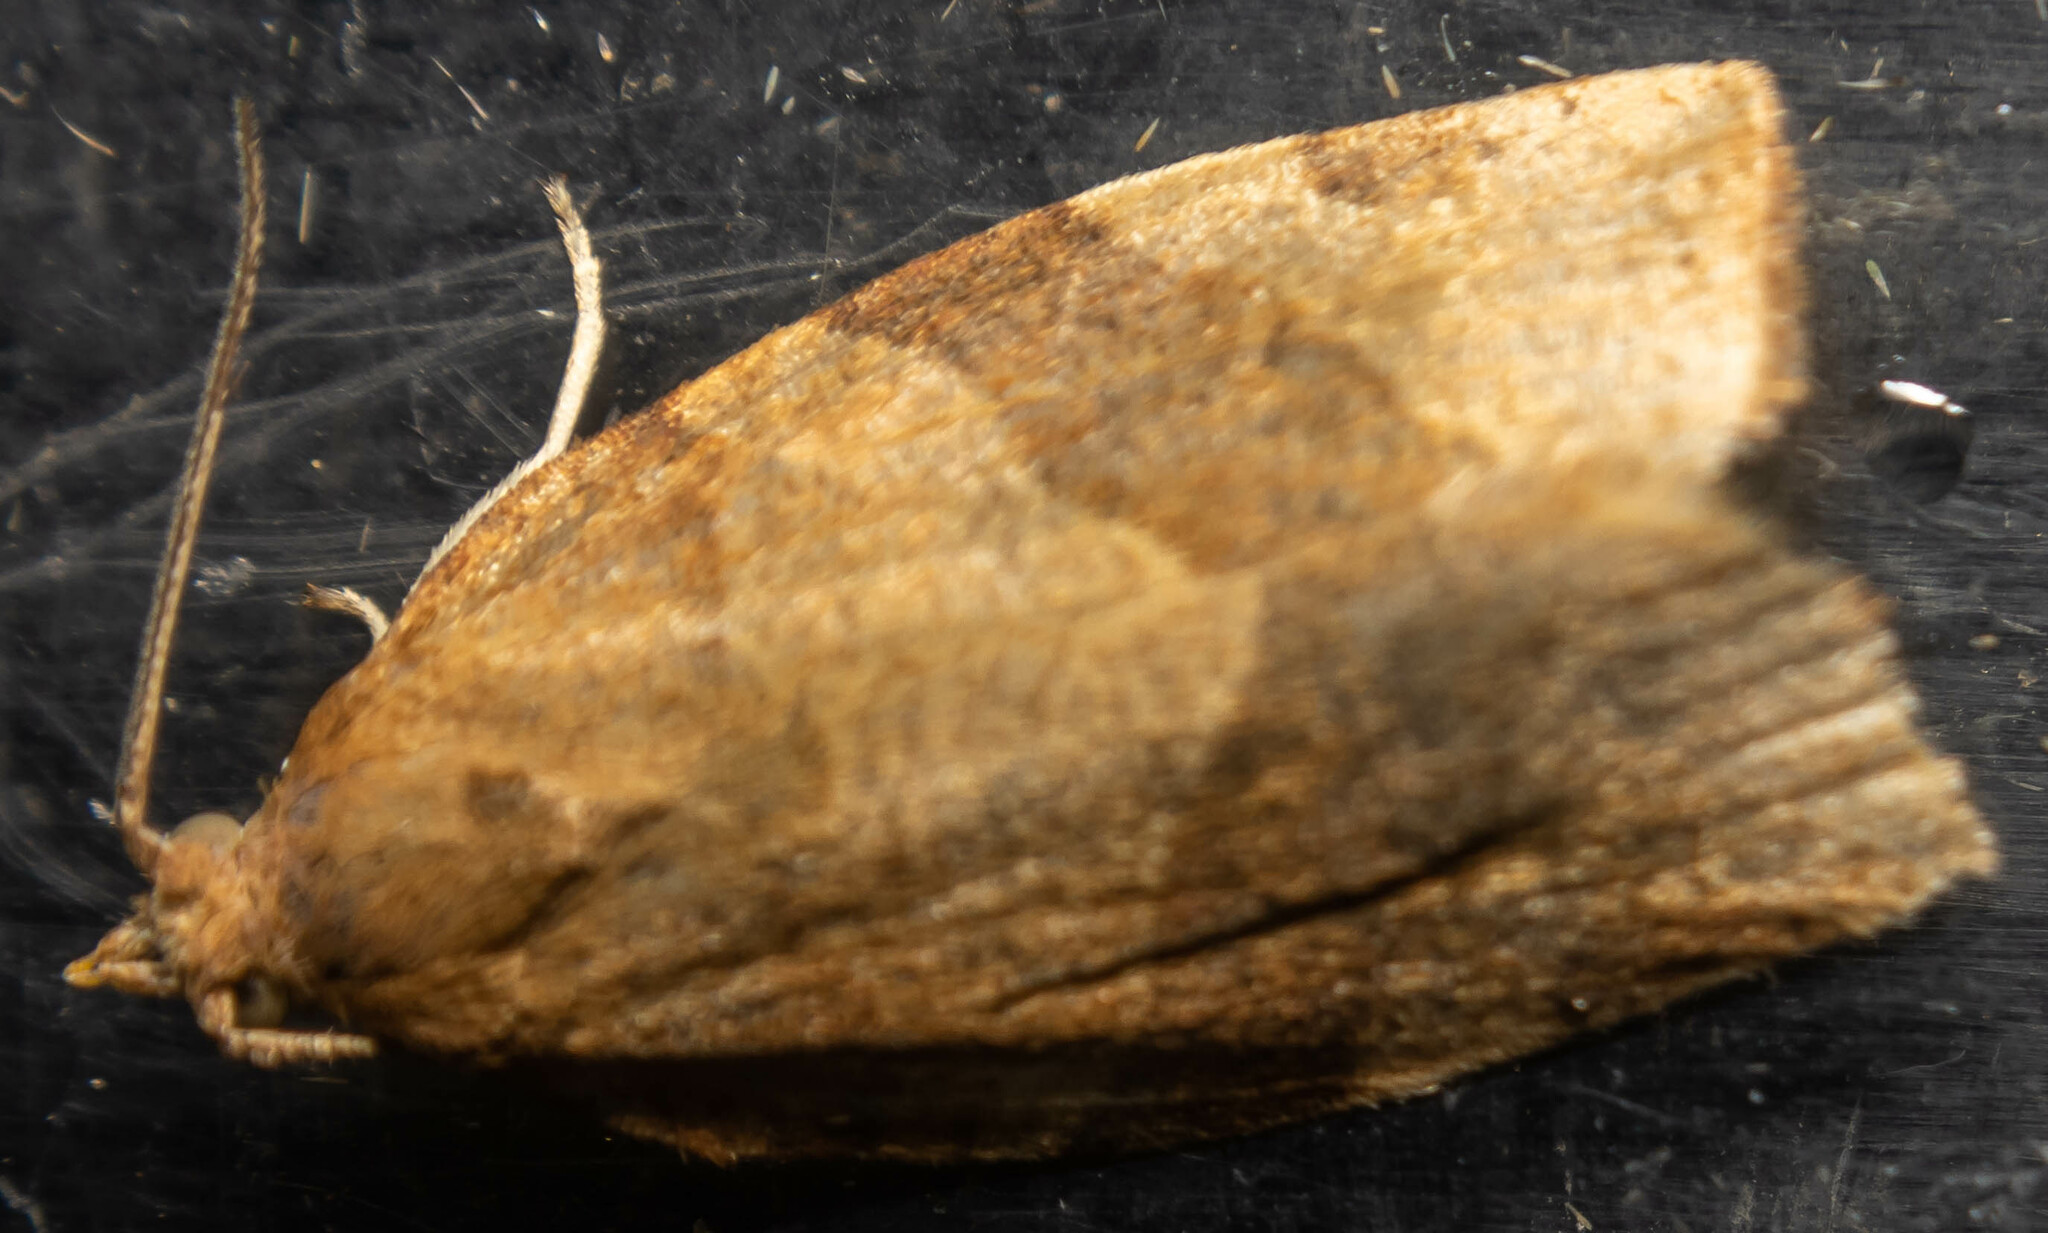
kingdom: Animalia
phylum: Arthropoda
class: Insecta
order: Lepidoptera
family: Tortricidae
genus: Pandemis
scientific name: Pandemis cerasana
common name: Barred fruit-tree tortrix
